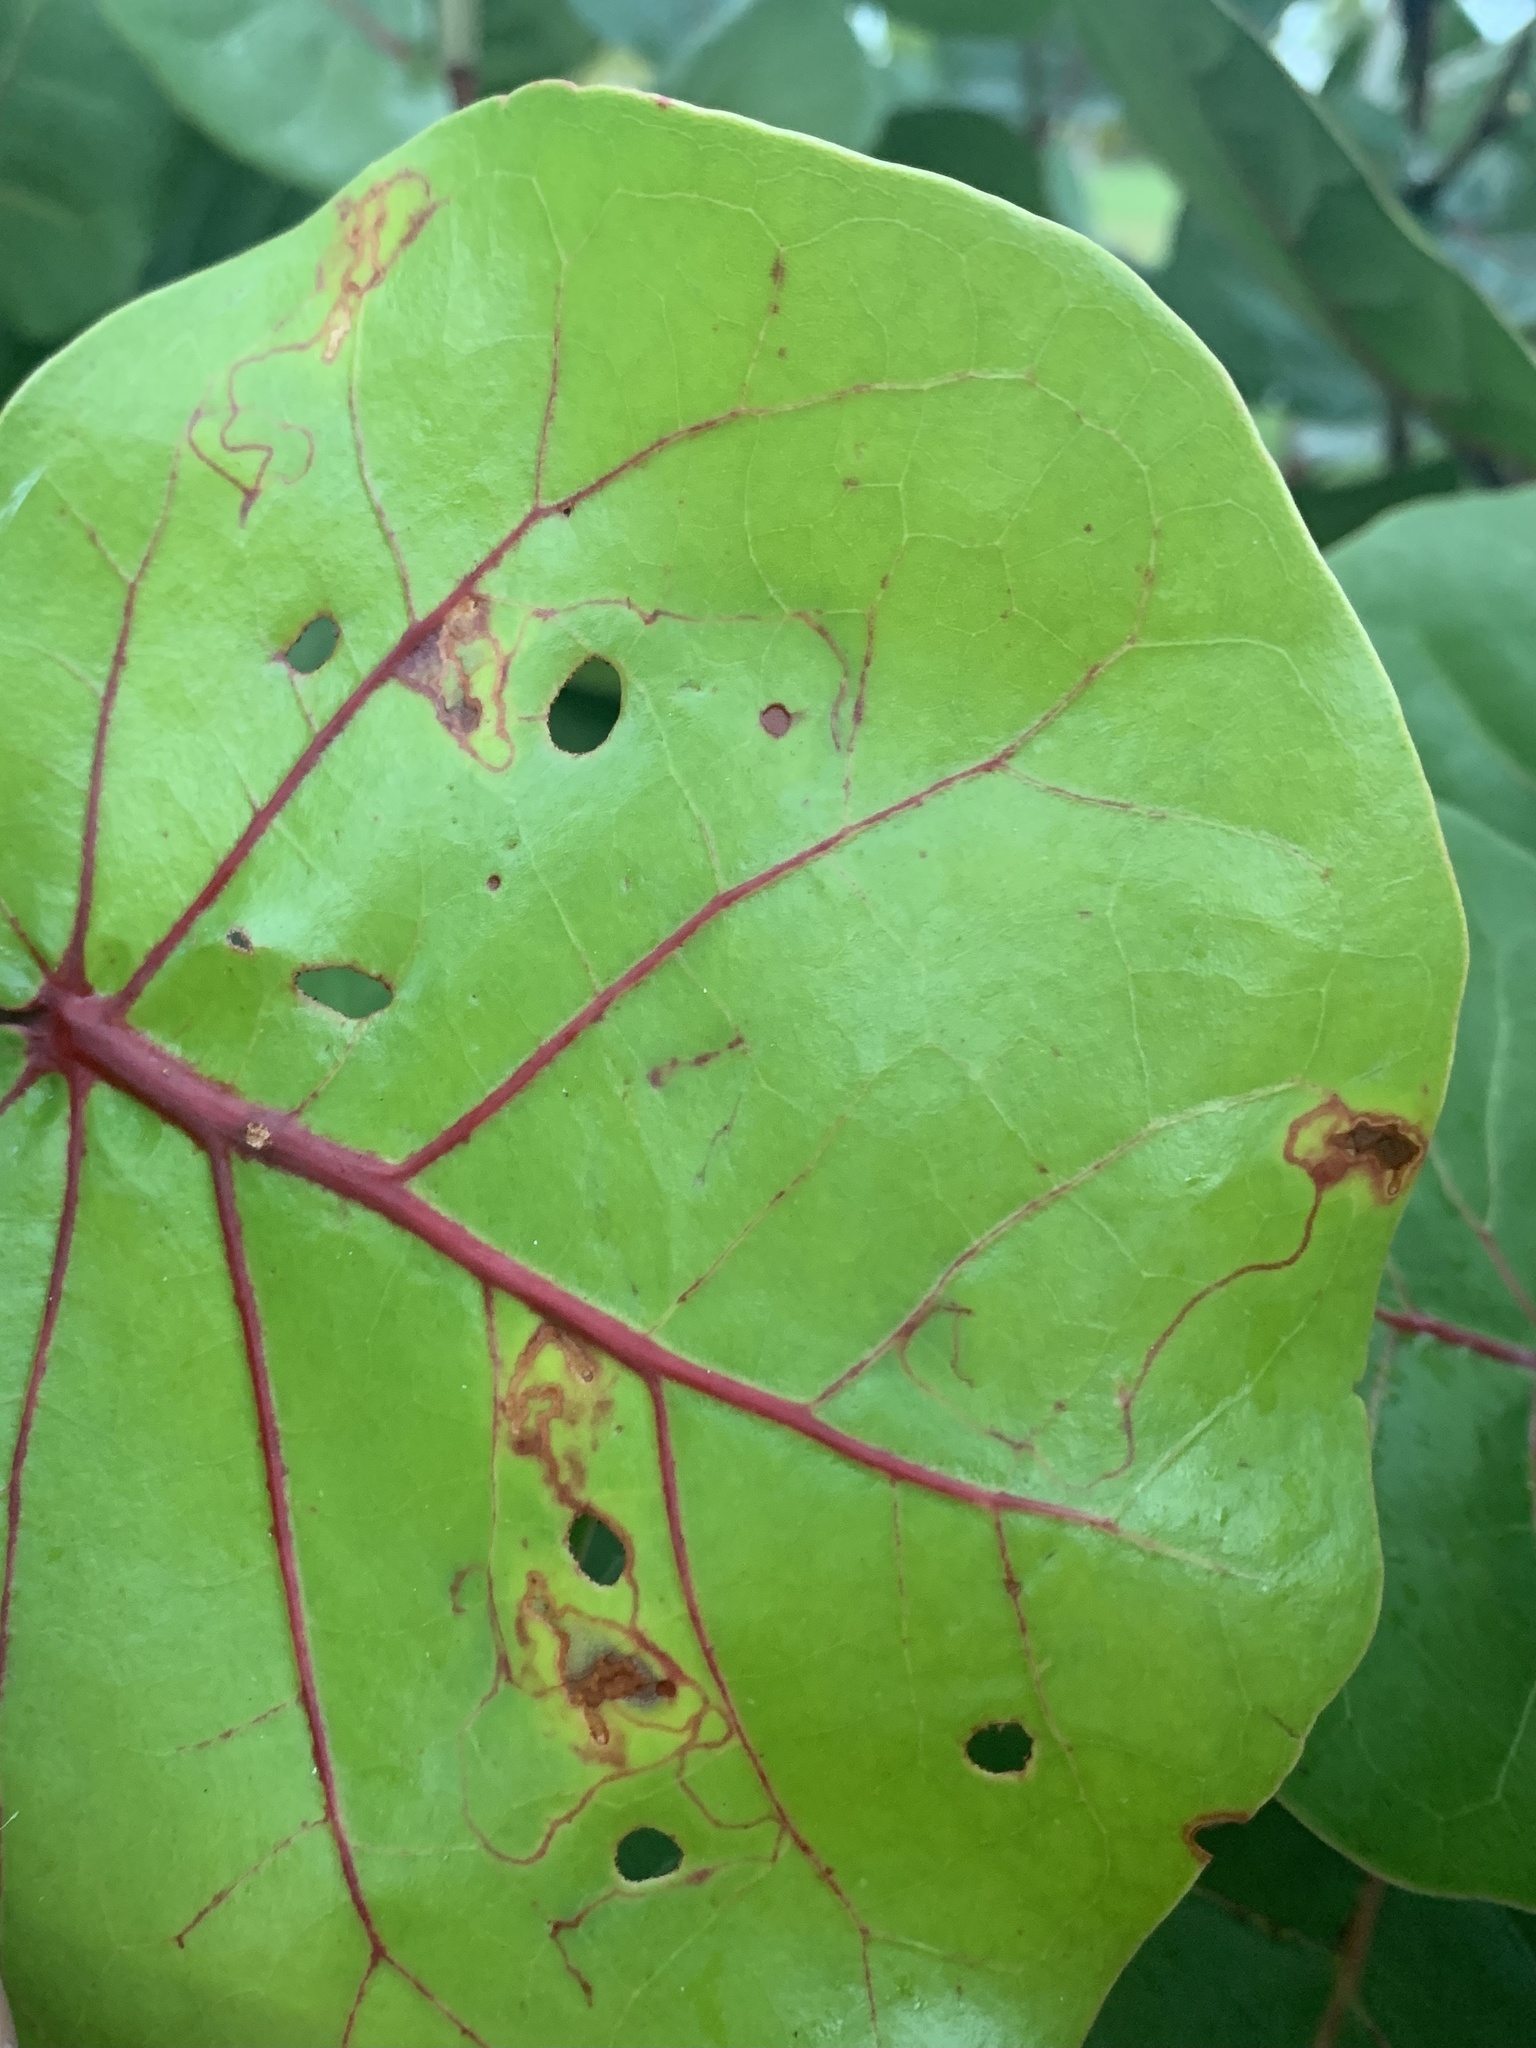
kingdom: Animalia
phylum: Arthropoda
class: Insecta
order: Lepidoptera
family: Nepticulidae
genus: Enteucha
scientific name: Enteucha basidactyla
